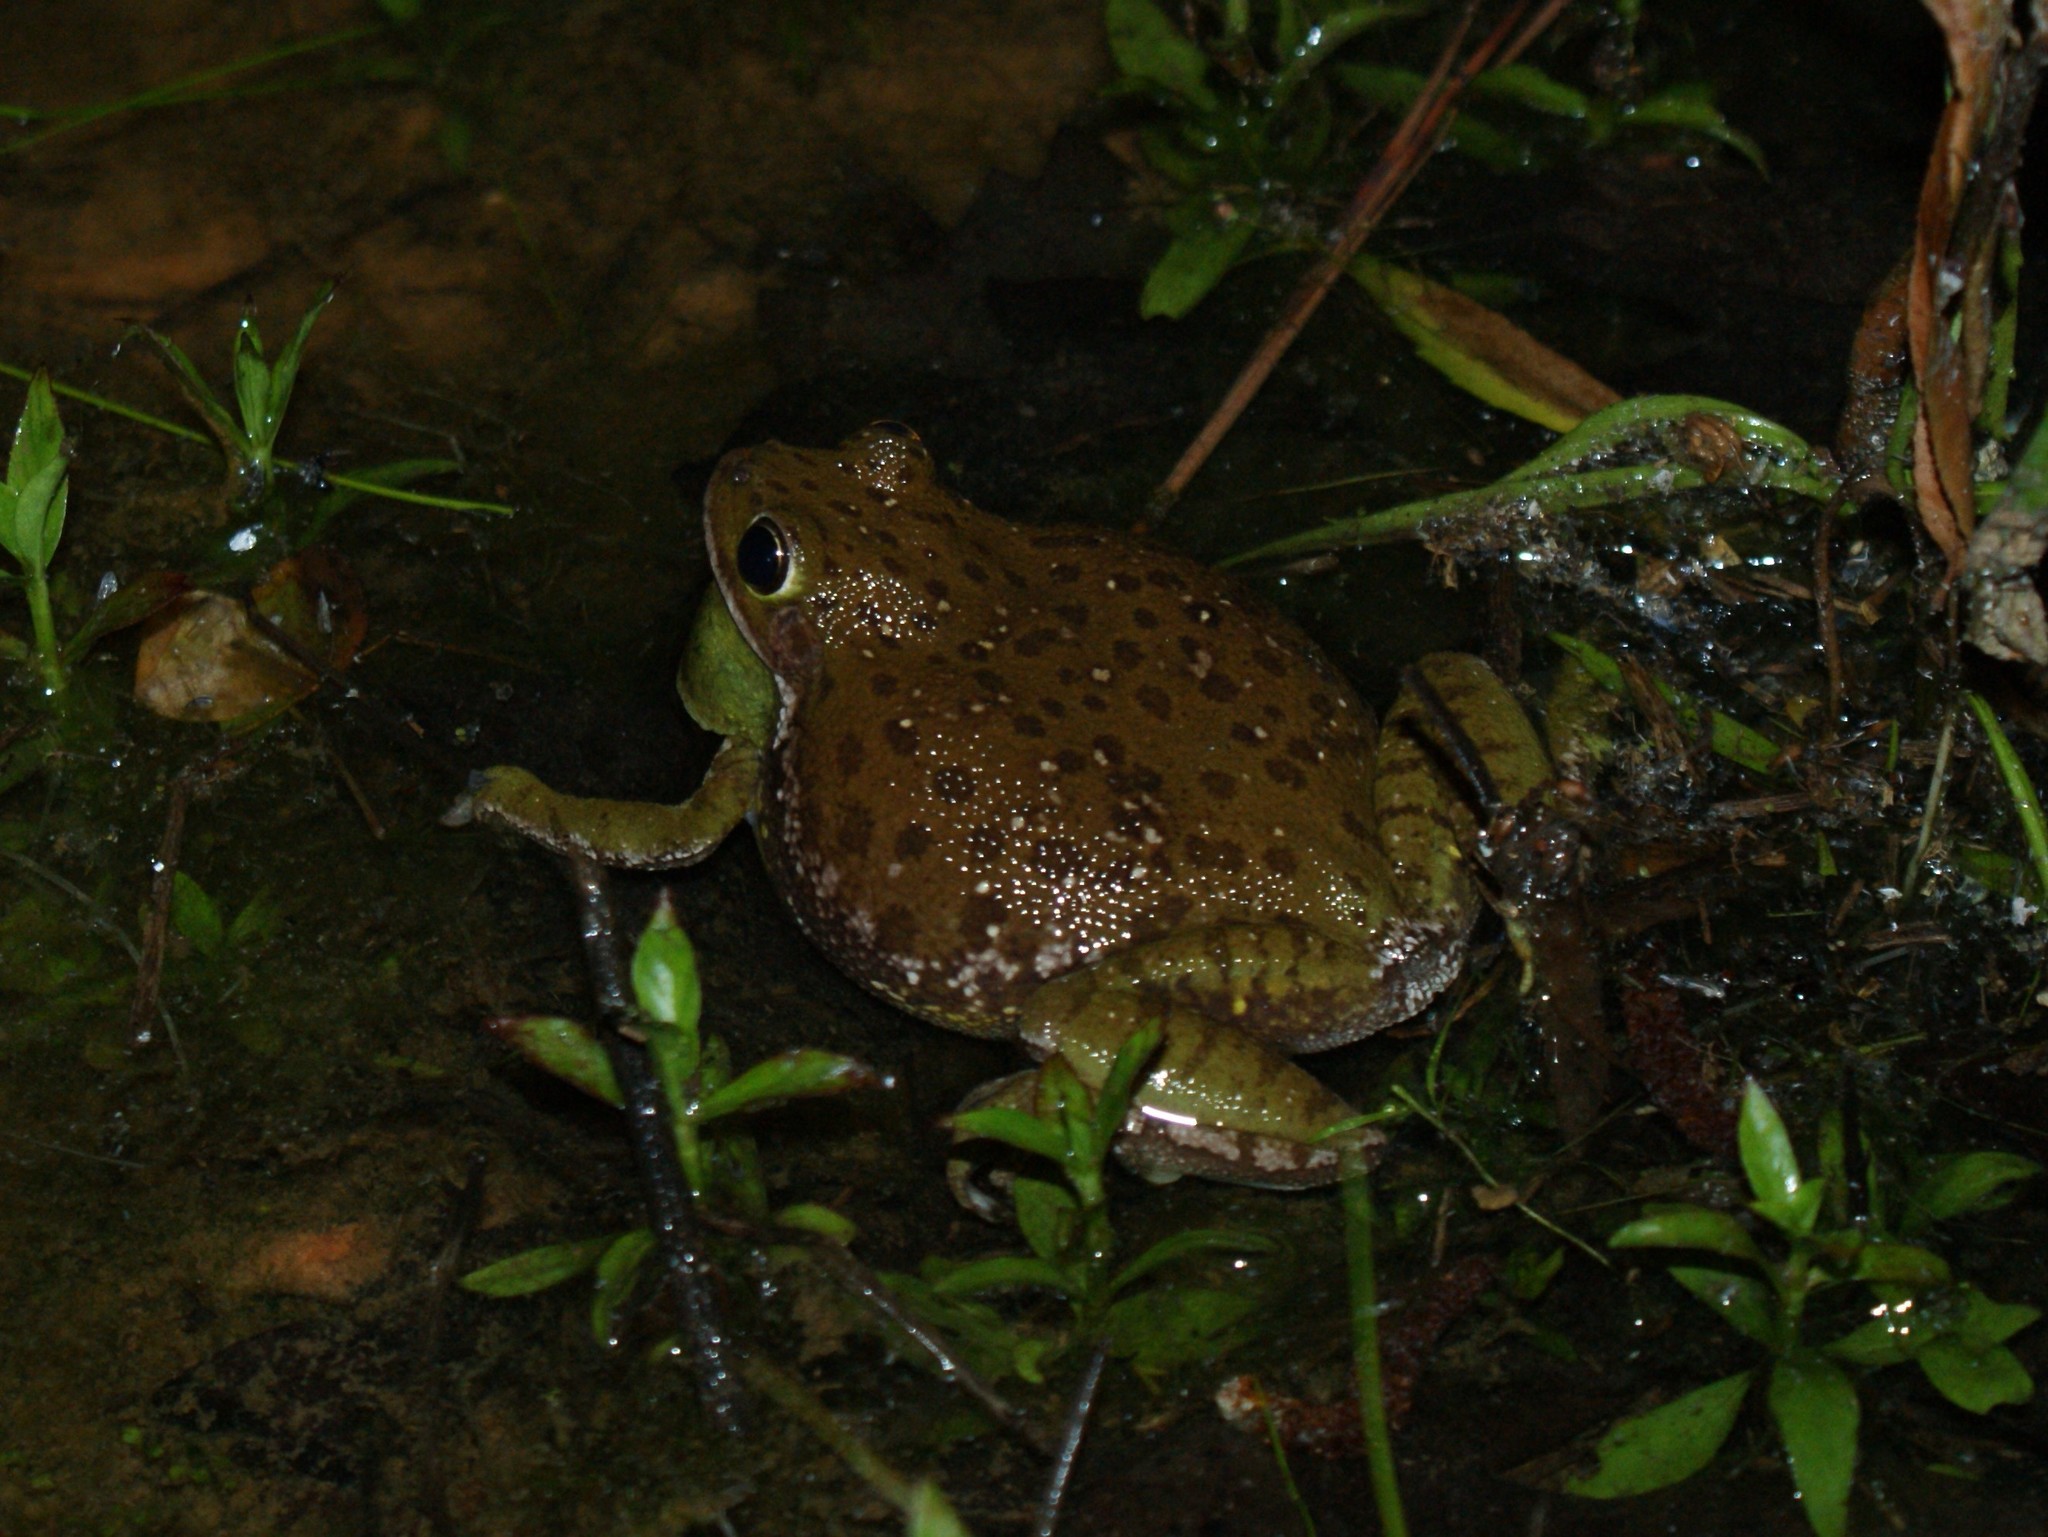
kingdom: Animalia
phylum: Chordata
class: Amphibia
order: Anura
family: Hylidae
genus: Dryophytes
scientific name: Dryophytes gratiosus
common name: Barking treefrog
